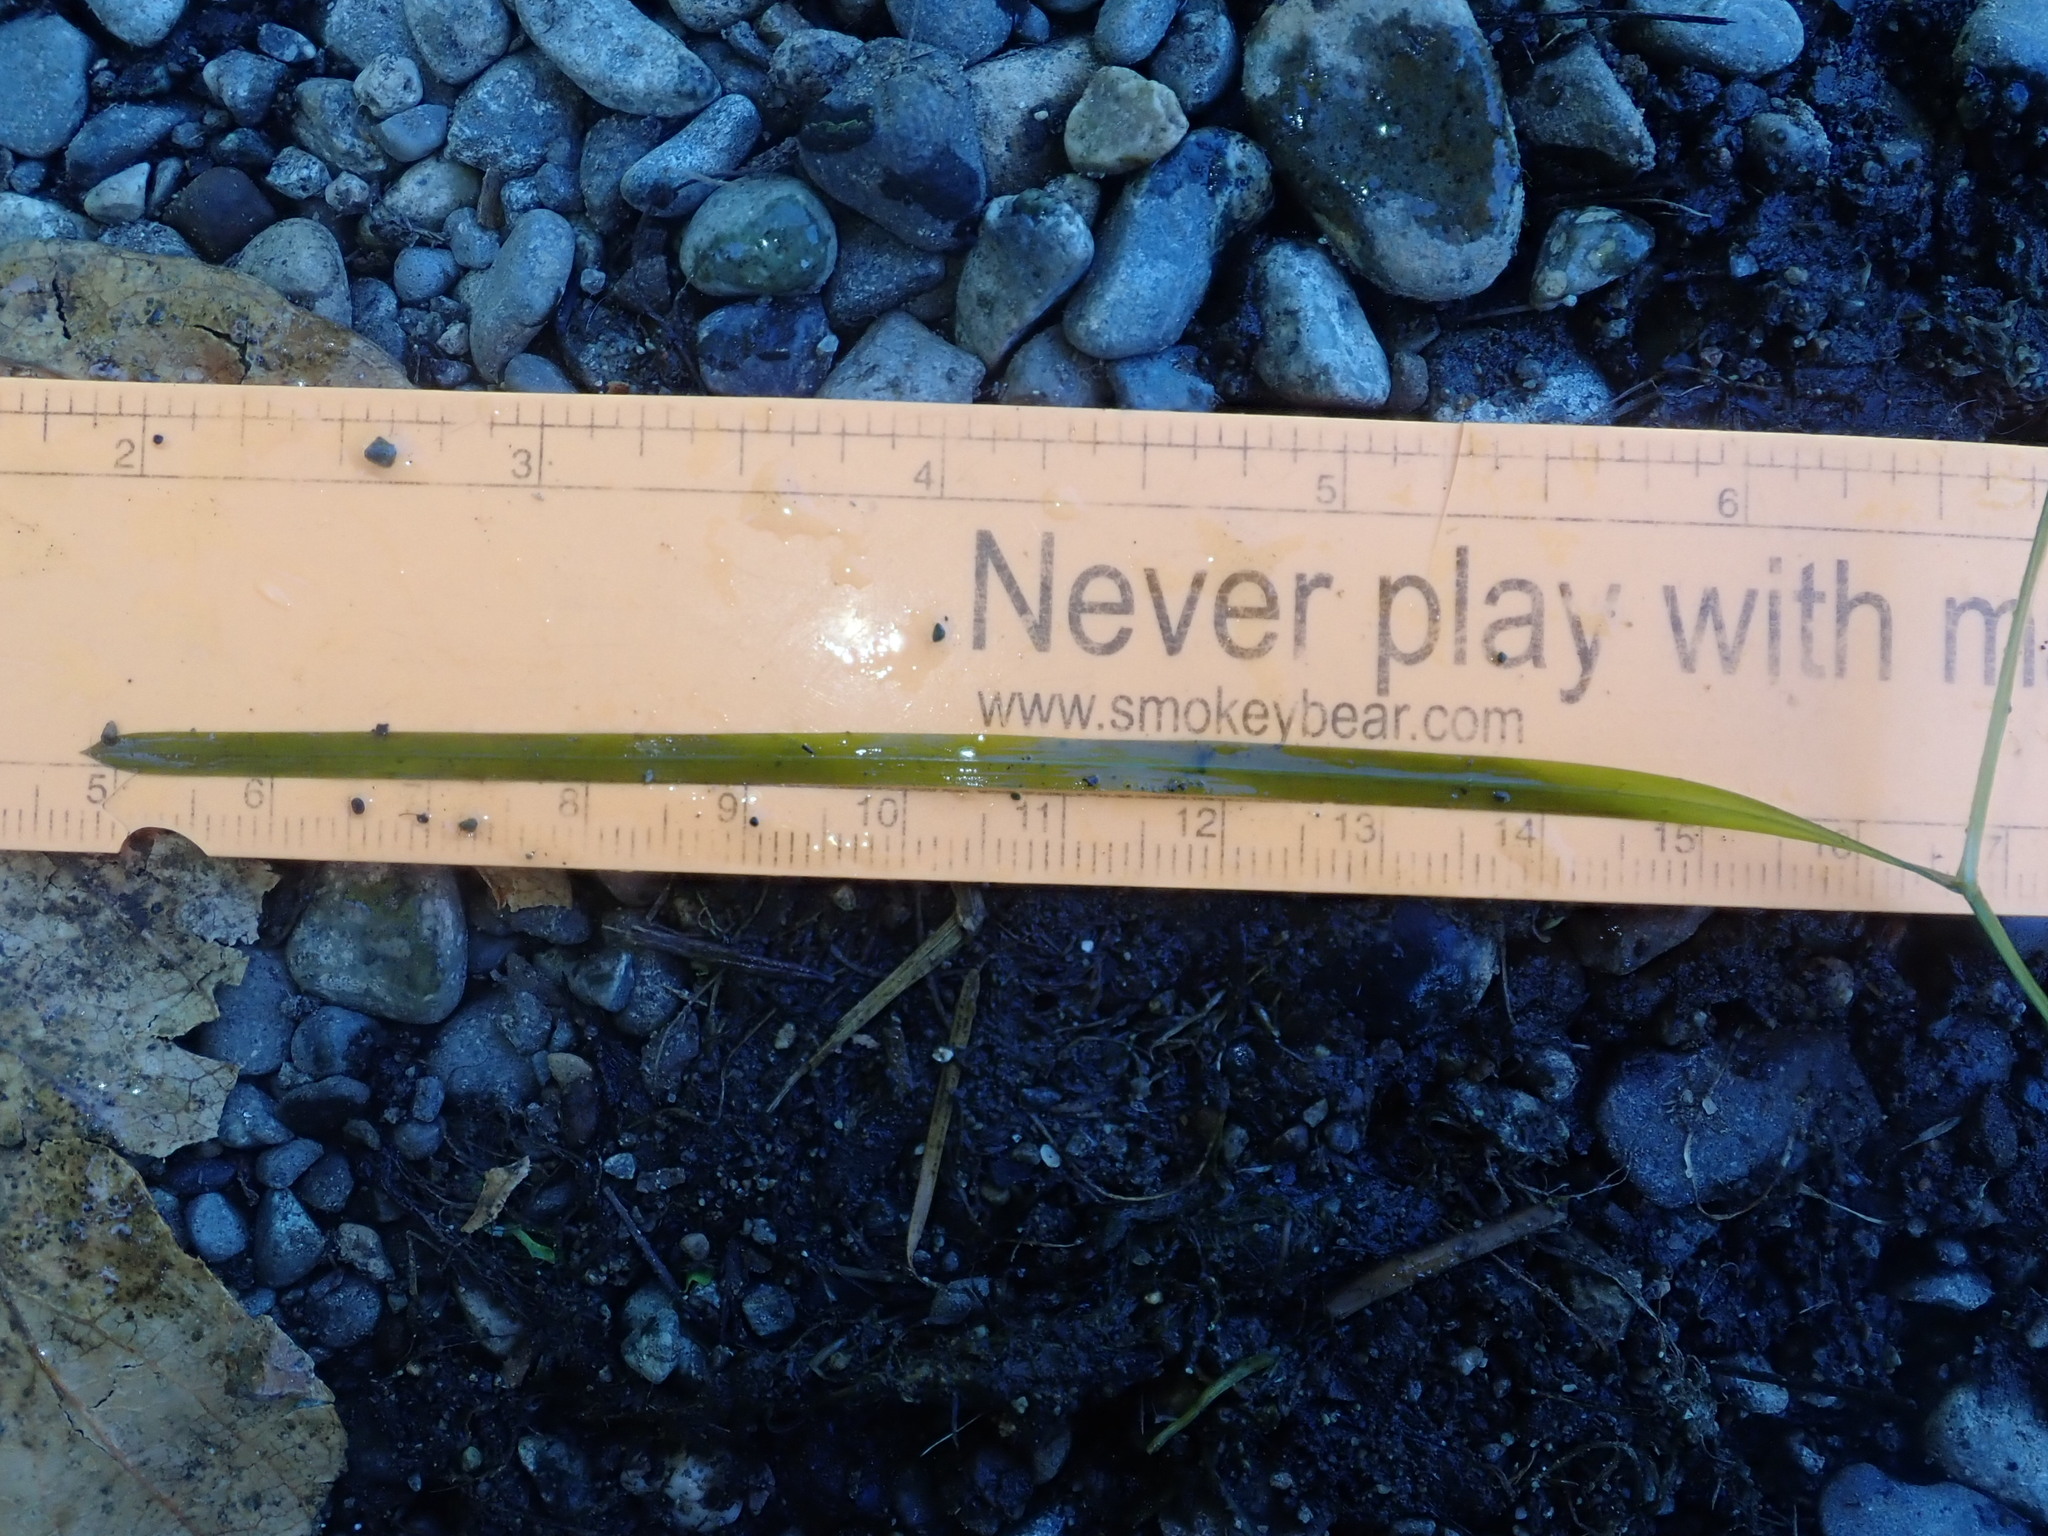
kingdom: Plantae
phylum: Tracheophyta
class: Liliopsida
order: Alismatales
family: Potamogetonaceae
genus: Potamogeton
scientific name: Potamogeton zosteriformis
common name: Eelgrass pondweed
